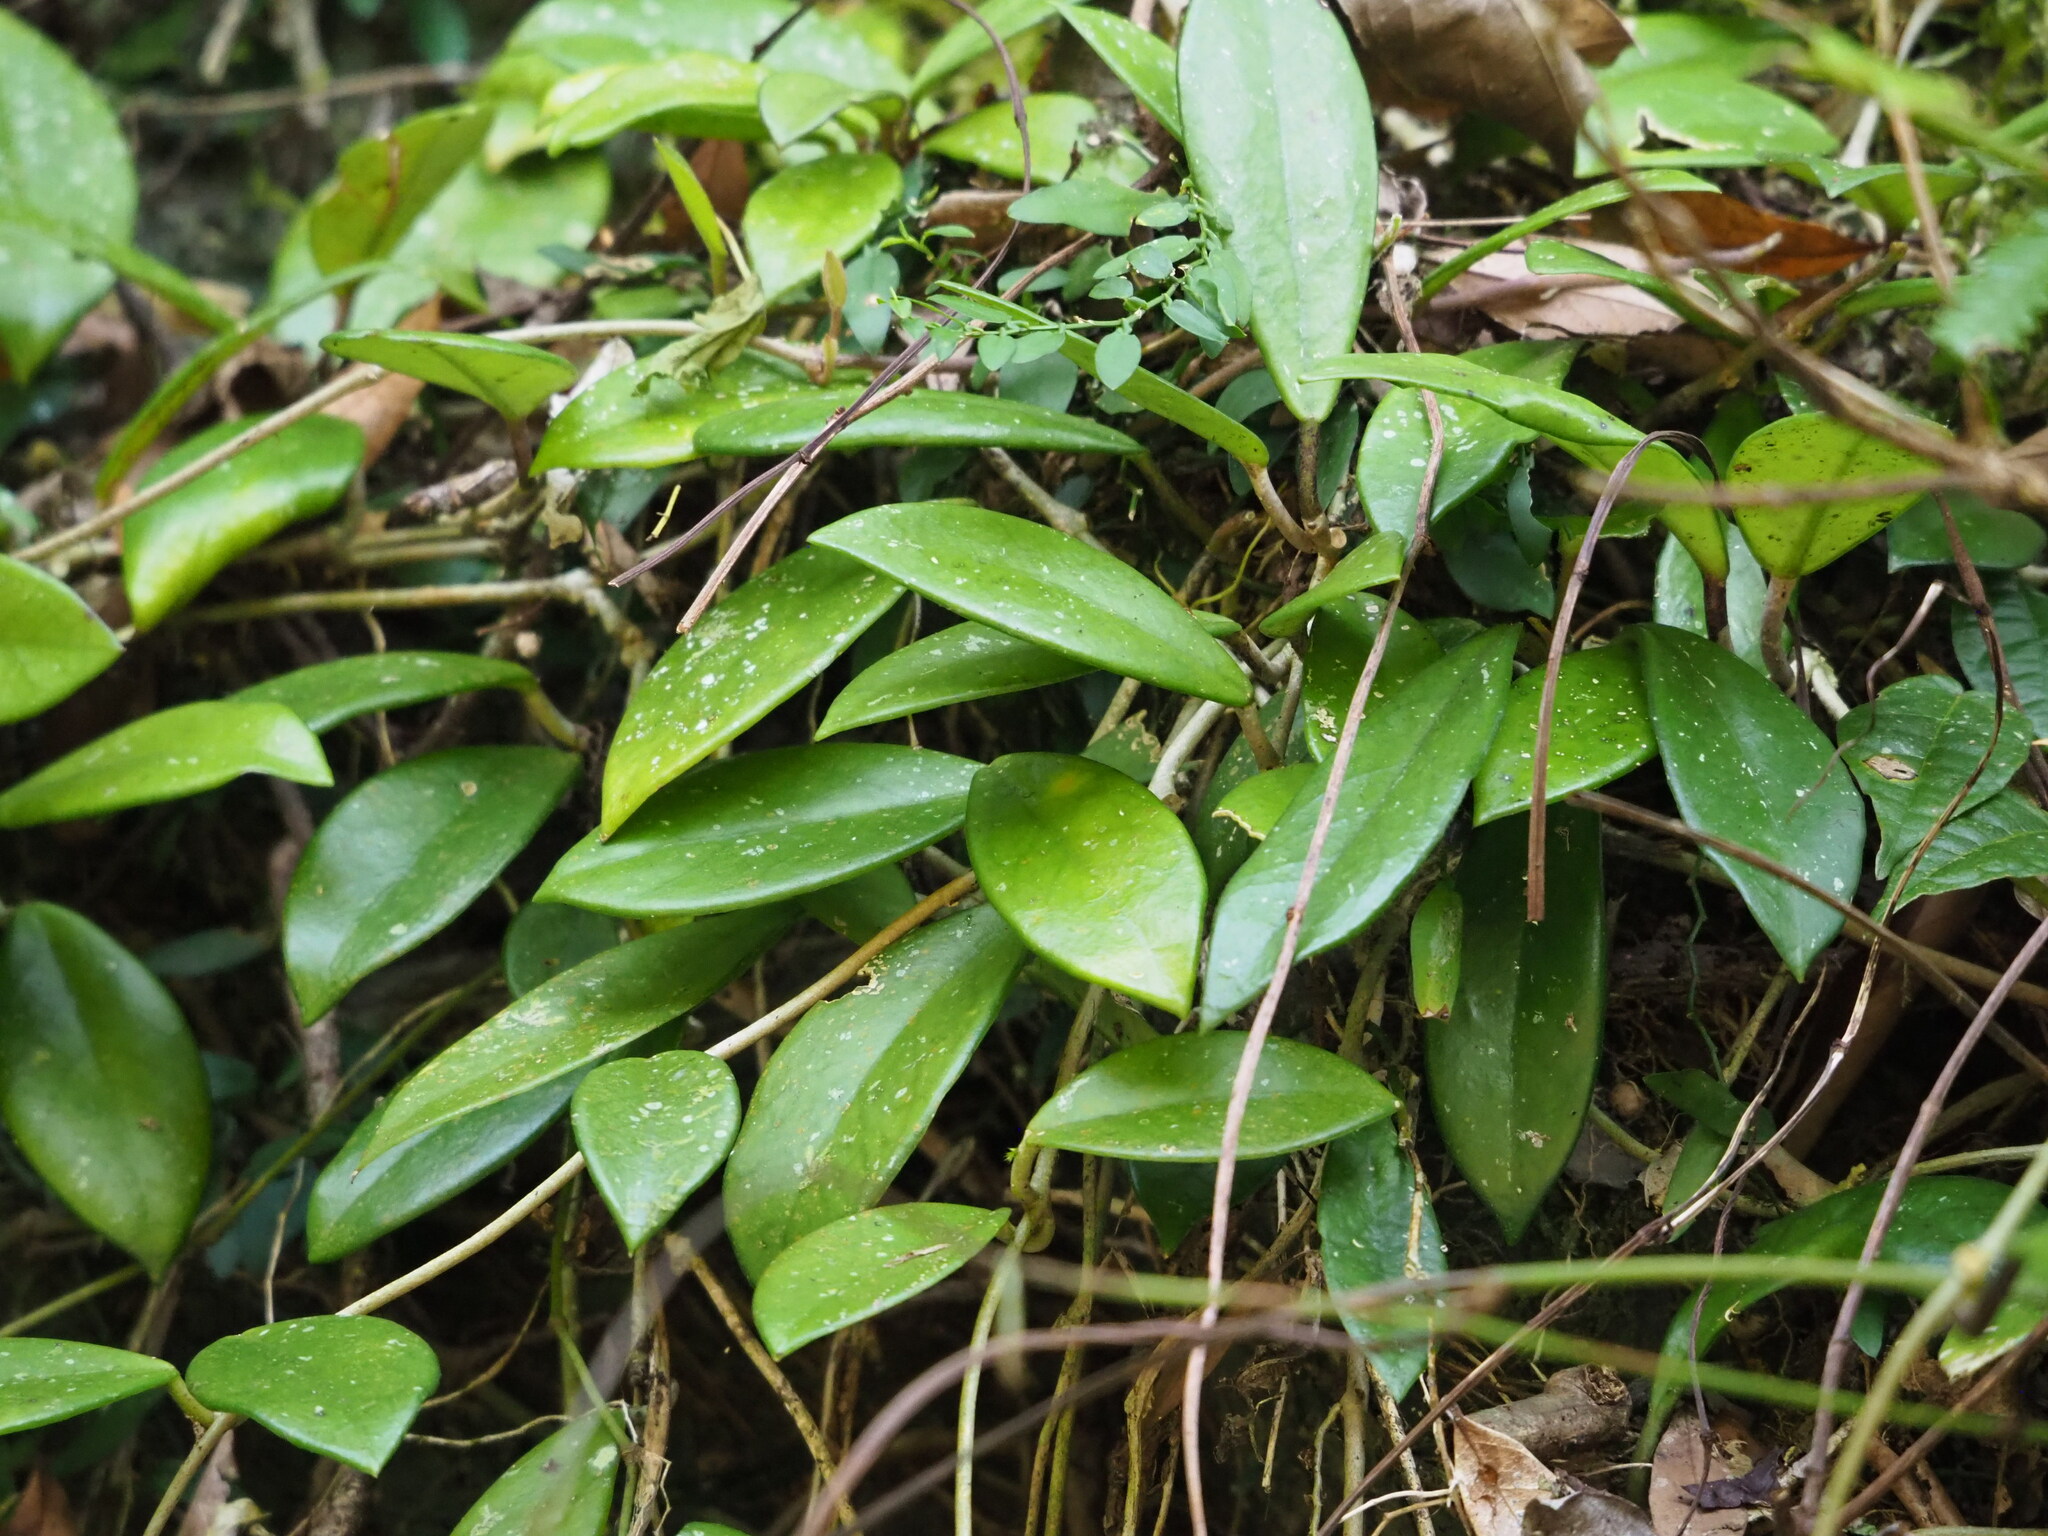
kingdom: Plantae
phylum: Tracheophyta
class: Magnoliopsida
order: Gentianales
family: Apocynaceae
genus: Hoya
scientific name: Hoya carnosa
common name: Honeyplant
